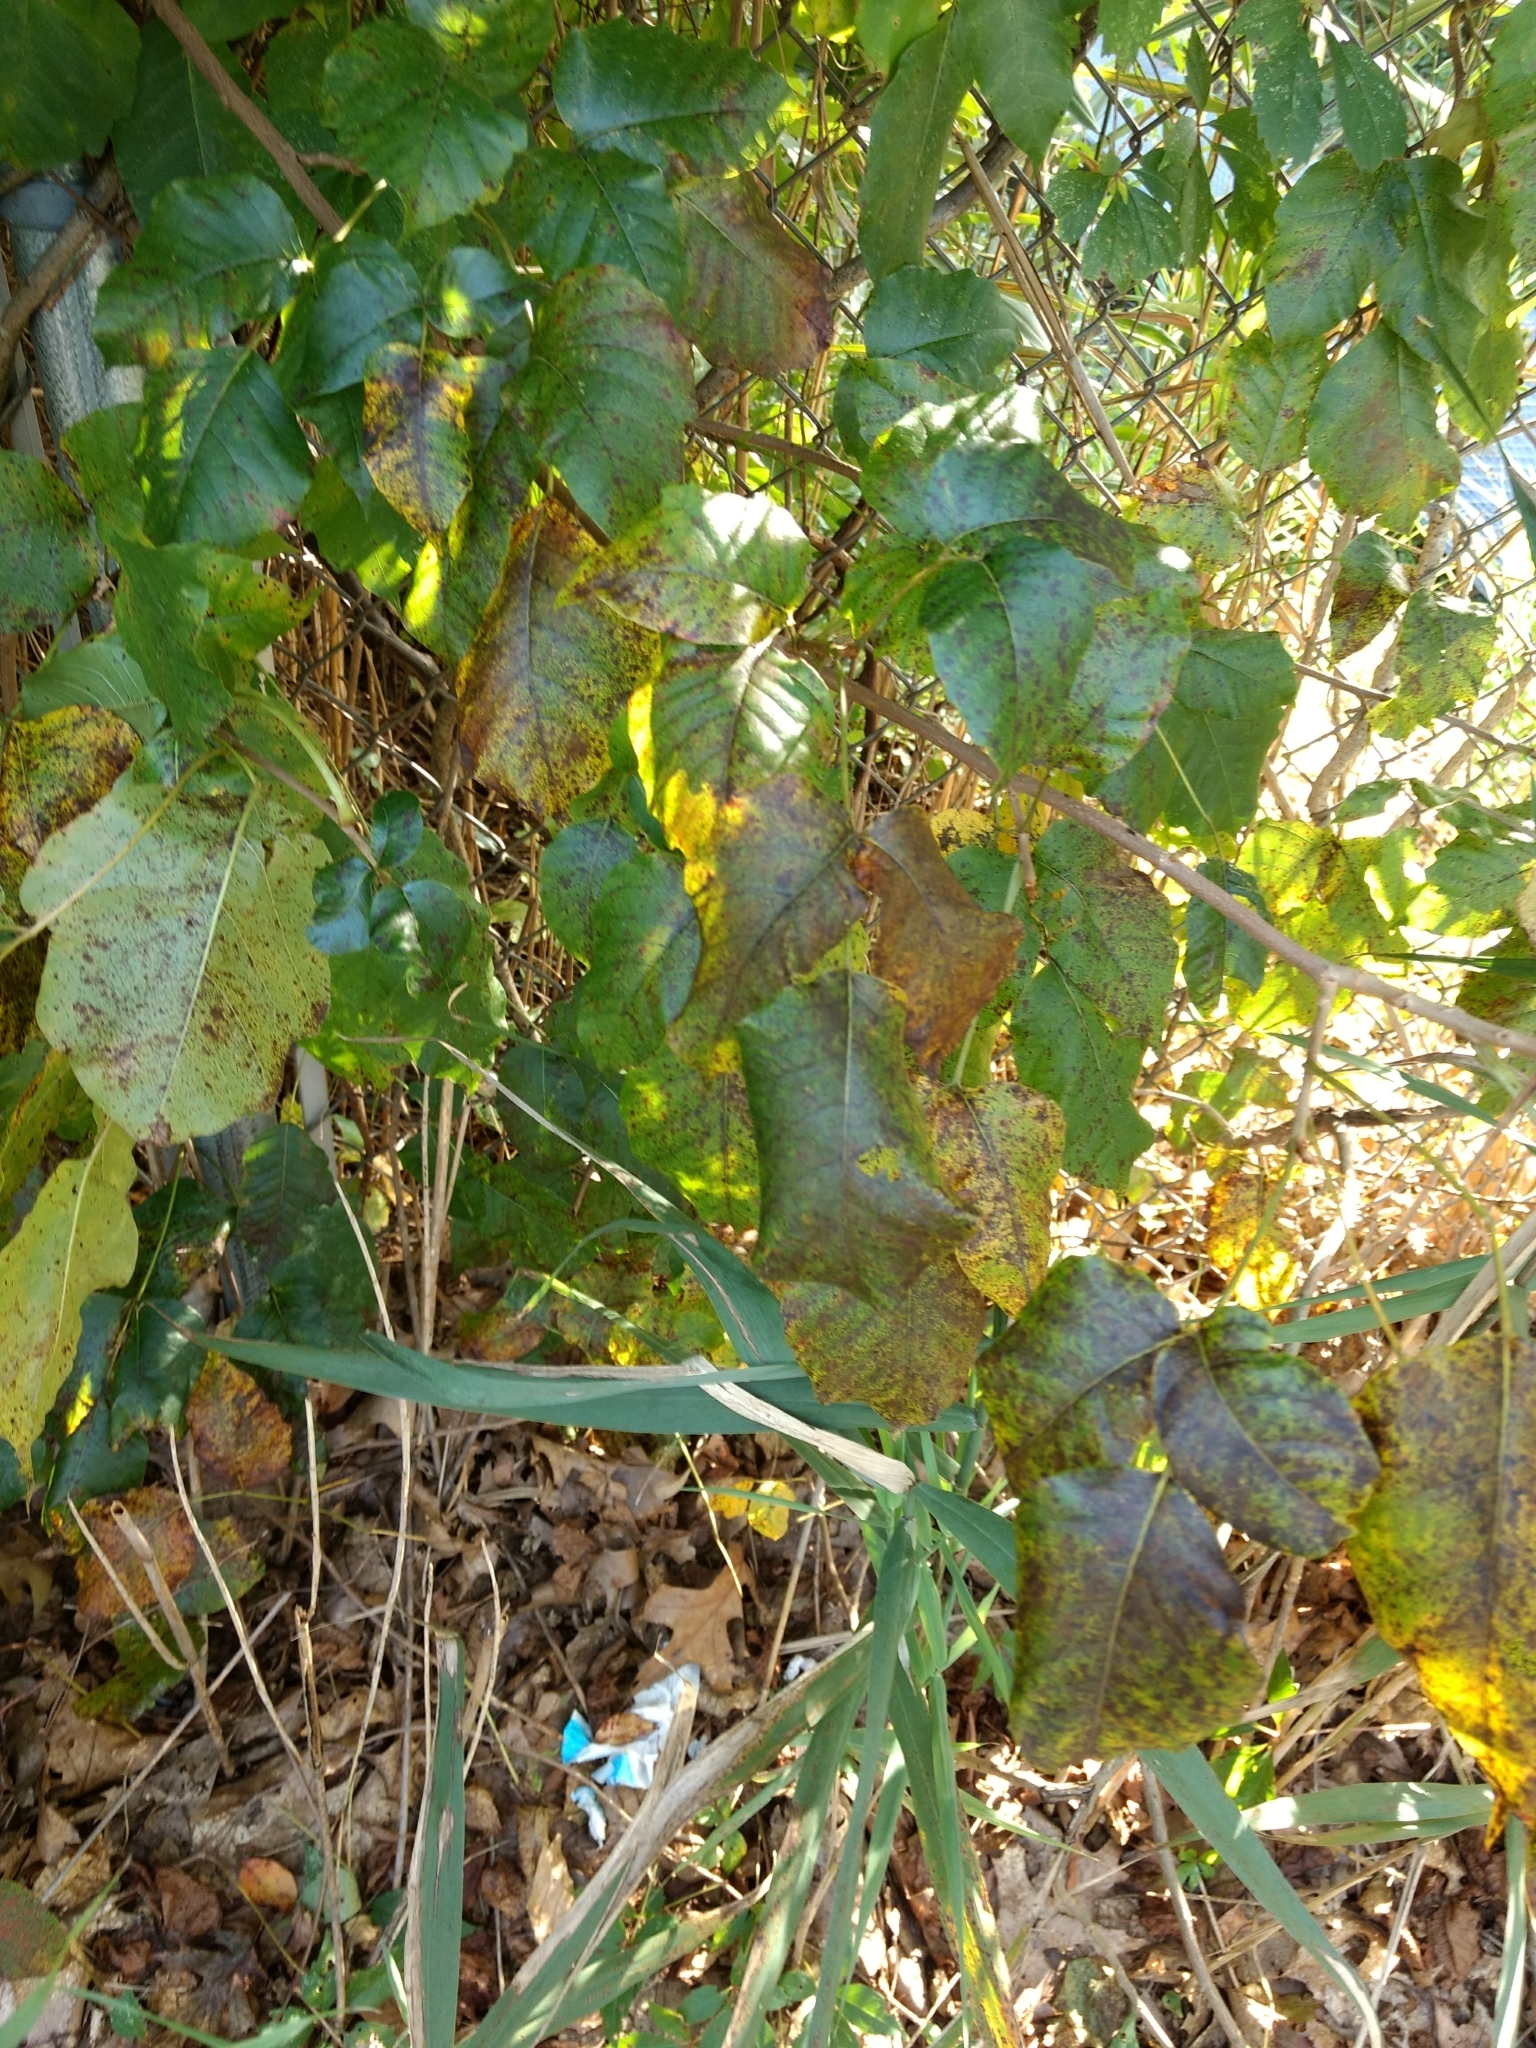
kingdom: Plantae
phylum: Tracheophyta
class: Magnoliopsida
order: Sapindales
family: Anacardiaceae
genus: Toxicodendron
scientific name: Toxicodendron radicans
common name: Poison ivy
